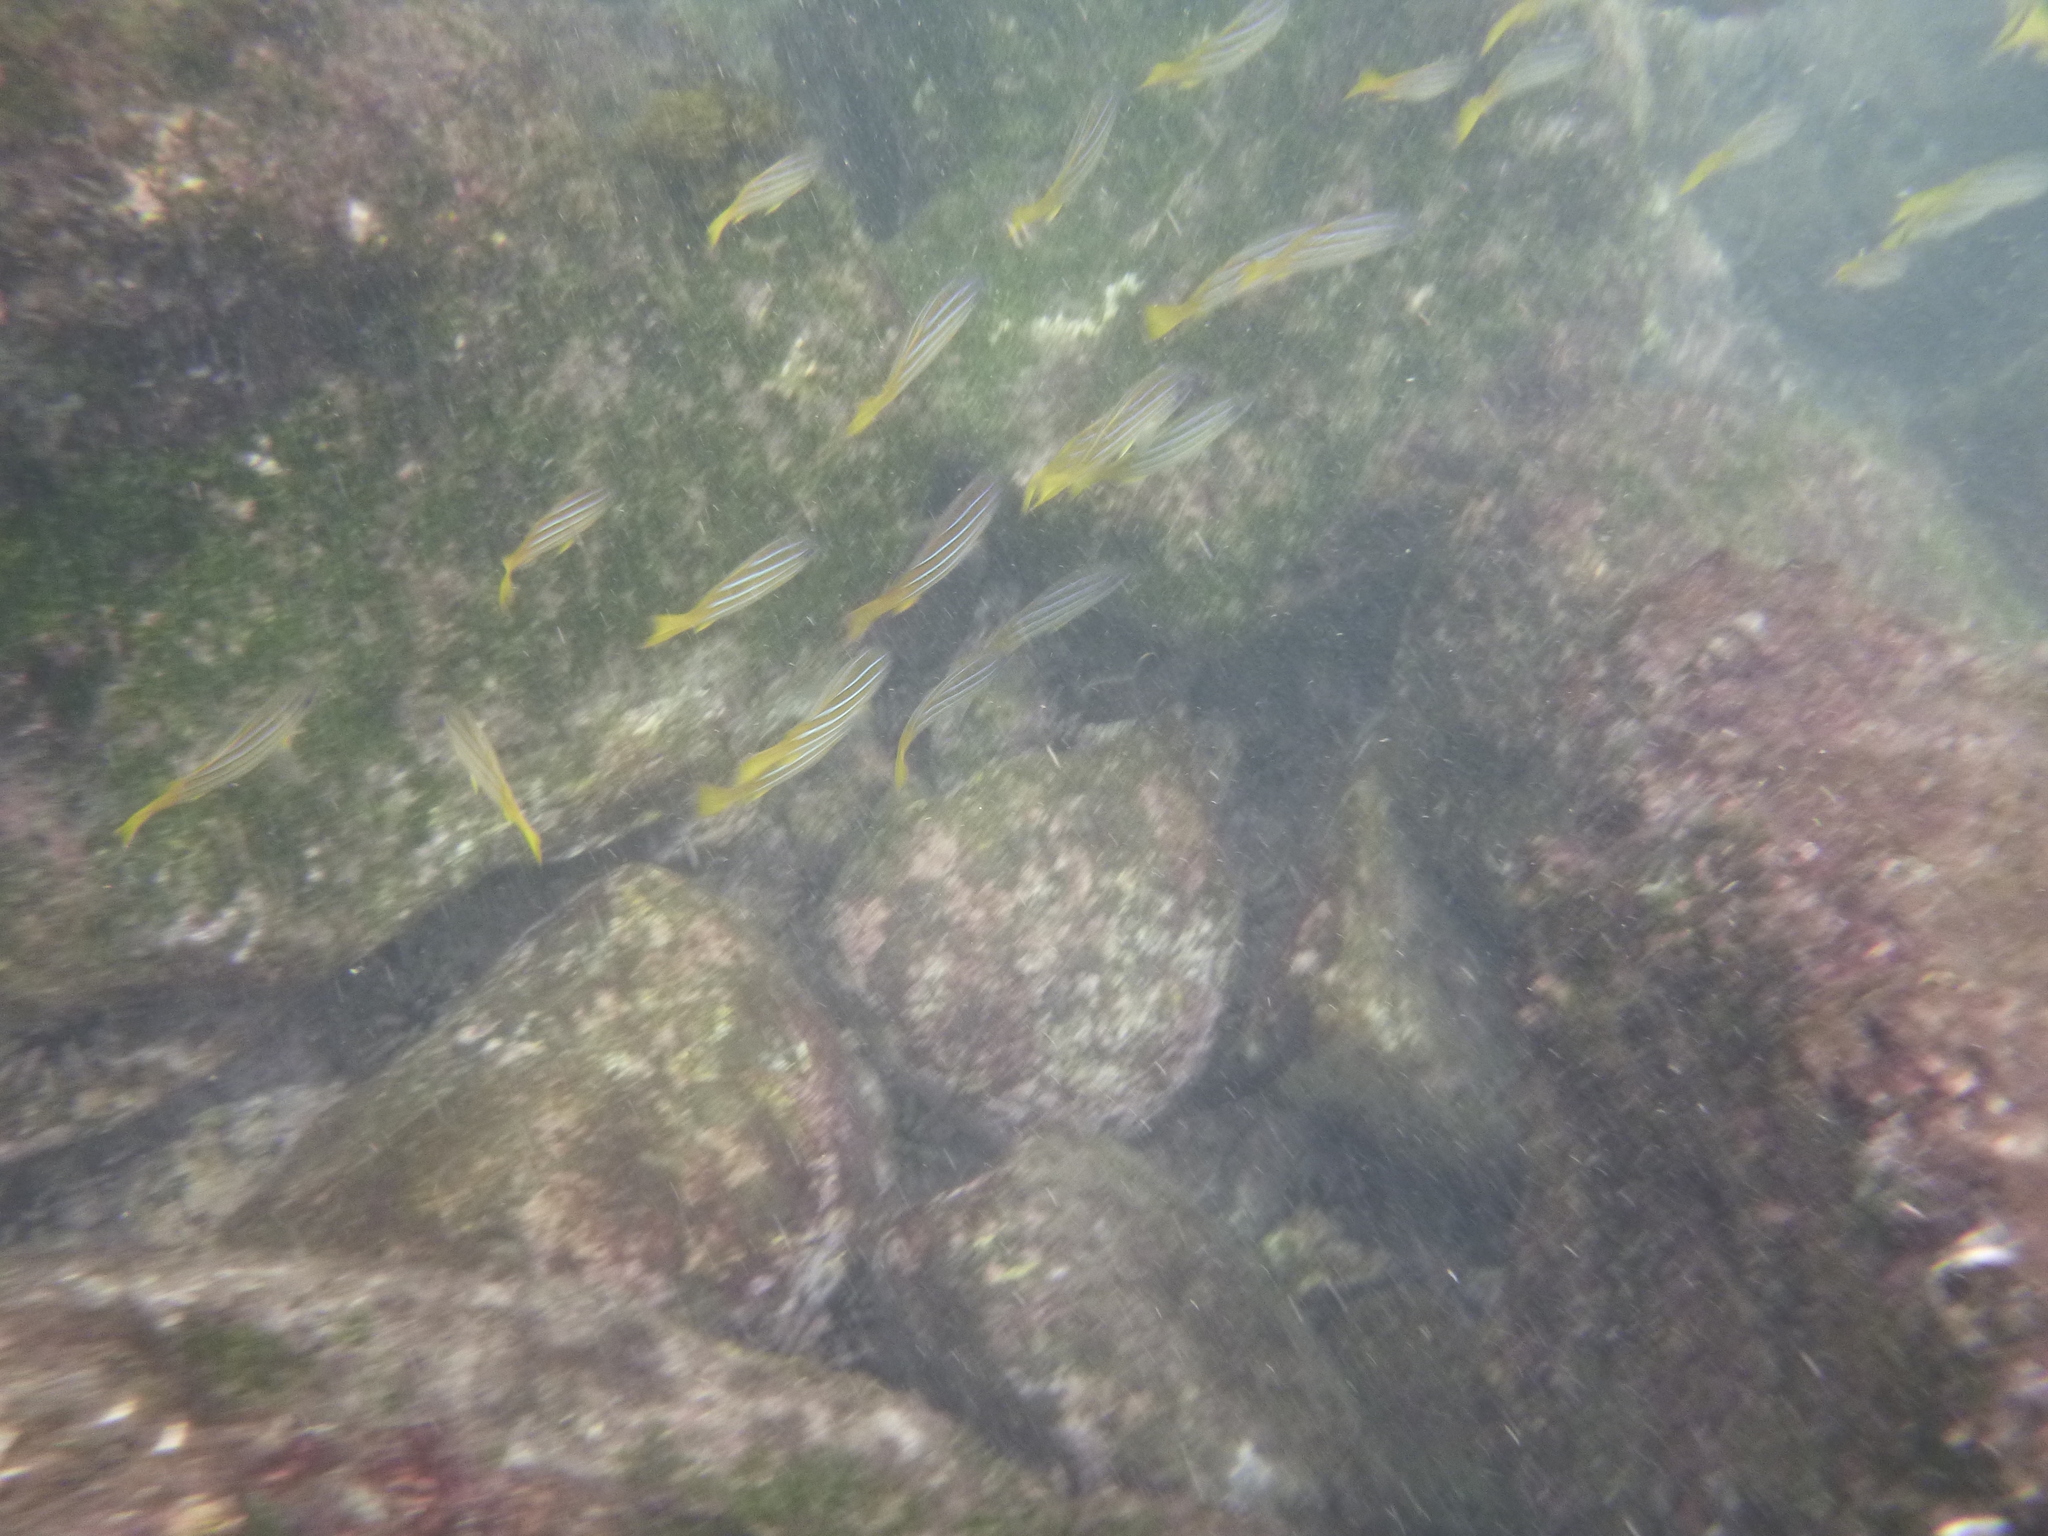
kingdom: Animalia
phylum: Chordata
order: Perciformes
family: Lutjanidae
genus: Lutjanus
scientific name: Lutjanus viridis
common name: Blue and gold snapper
